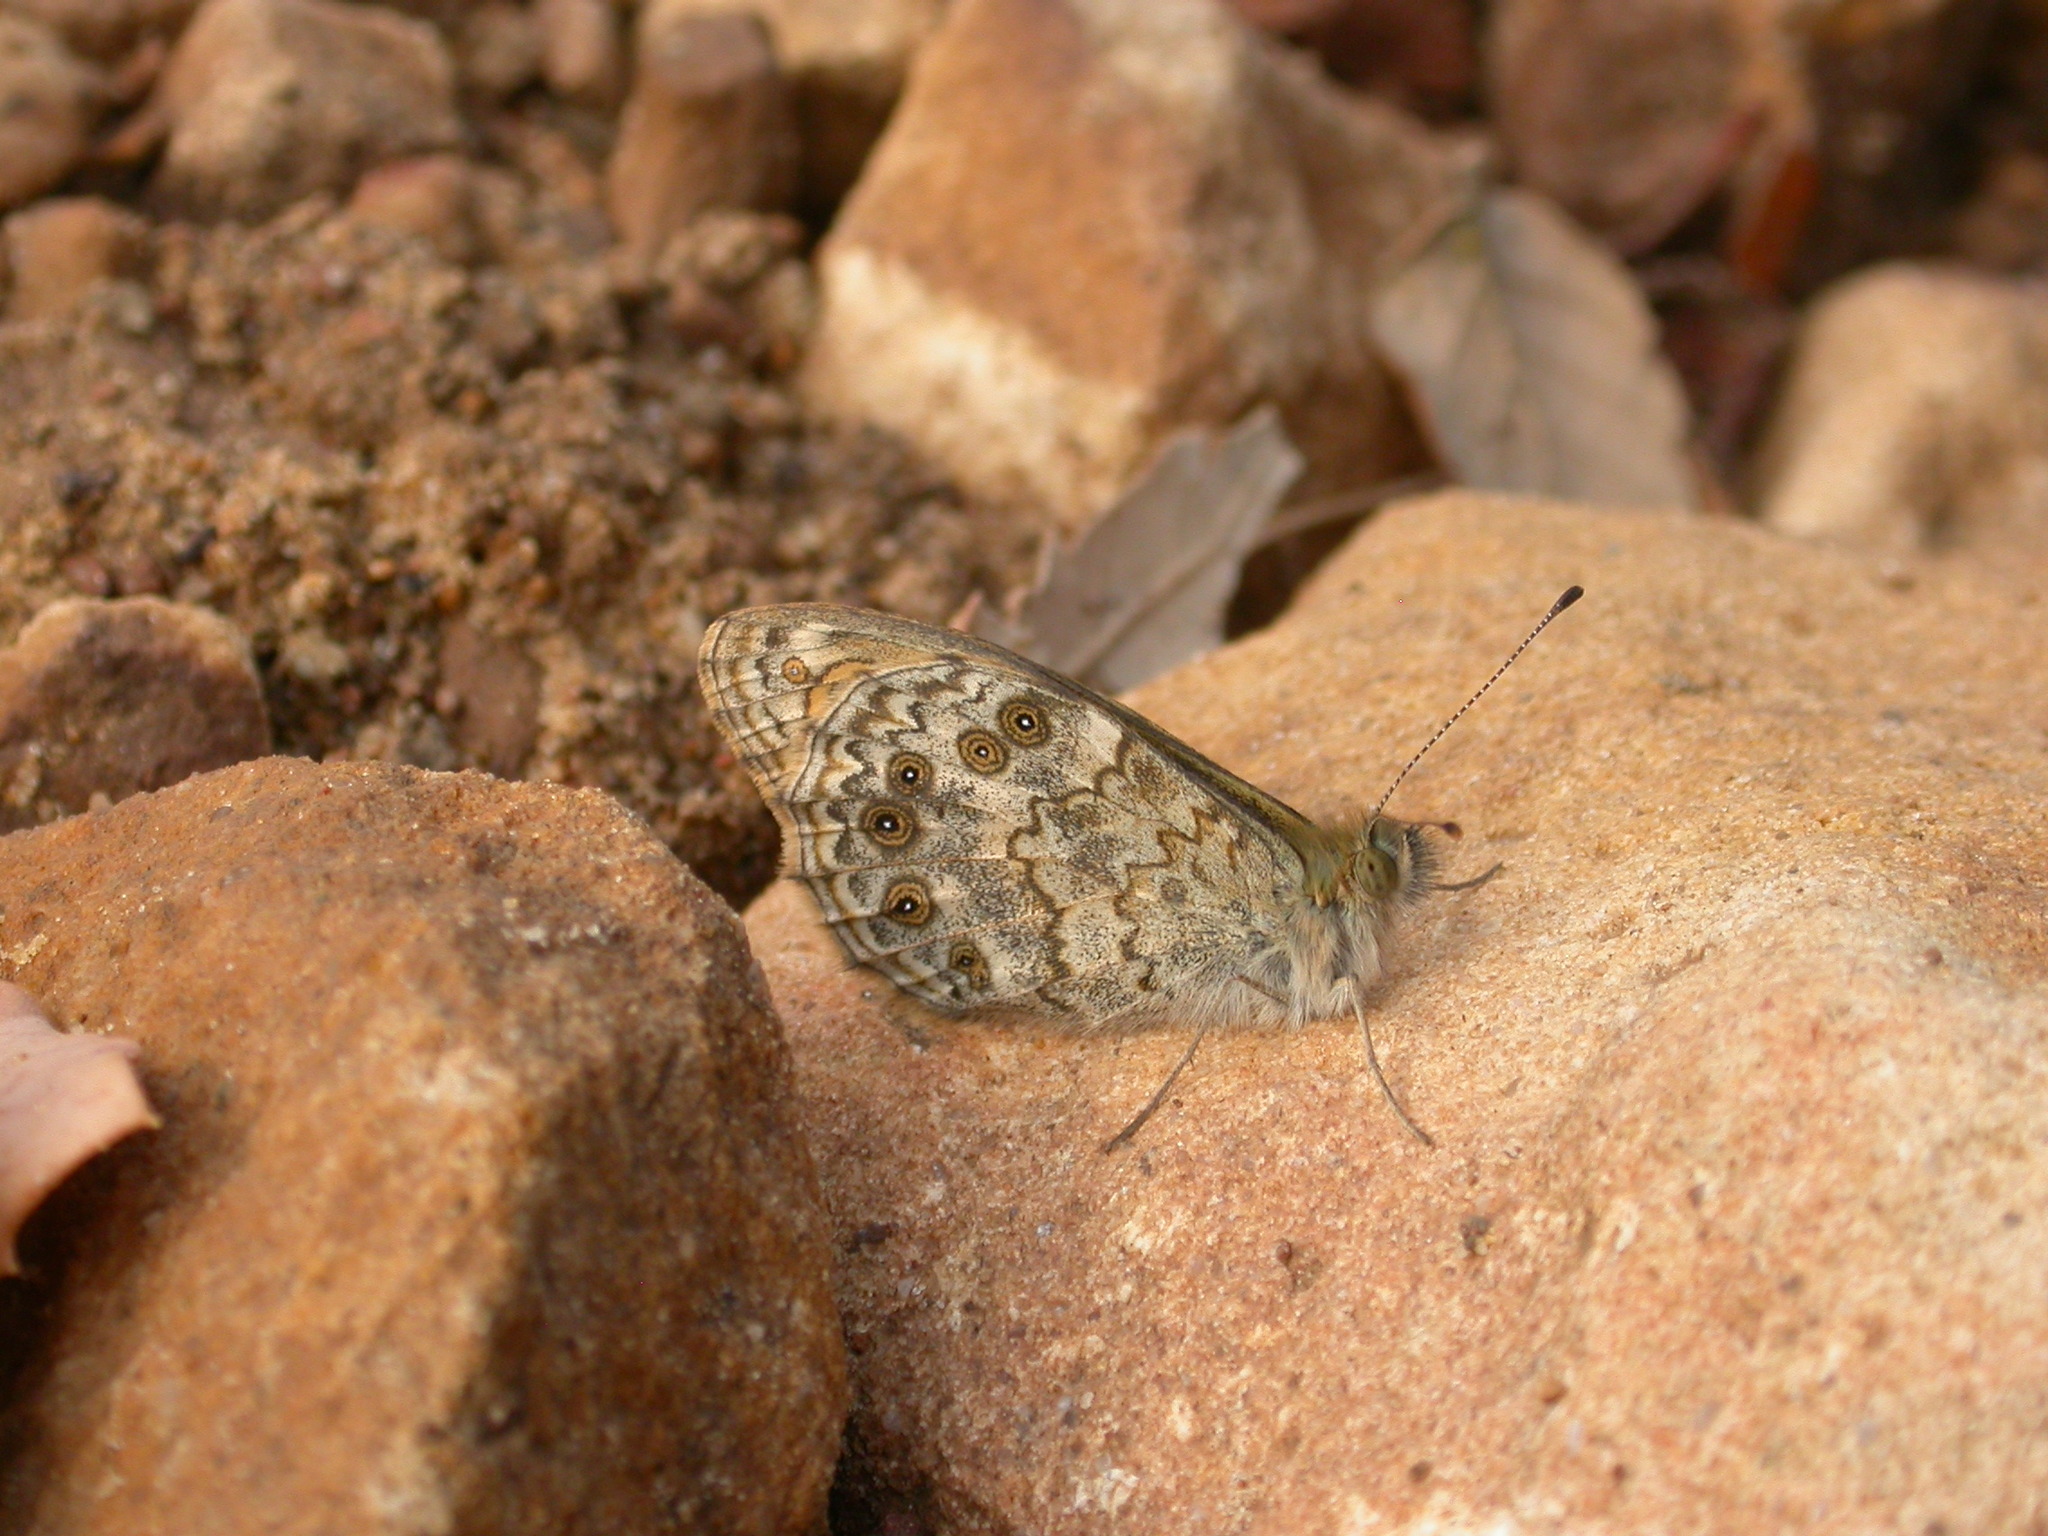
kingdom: Animalia
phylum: Arthropoda
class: Insecta
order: Lepidoptera
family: Nymphalidae
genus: Pararge
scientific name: Pararge Lasiommata megera
